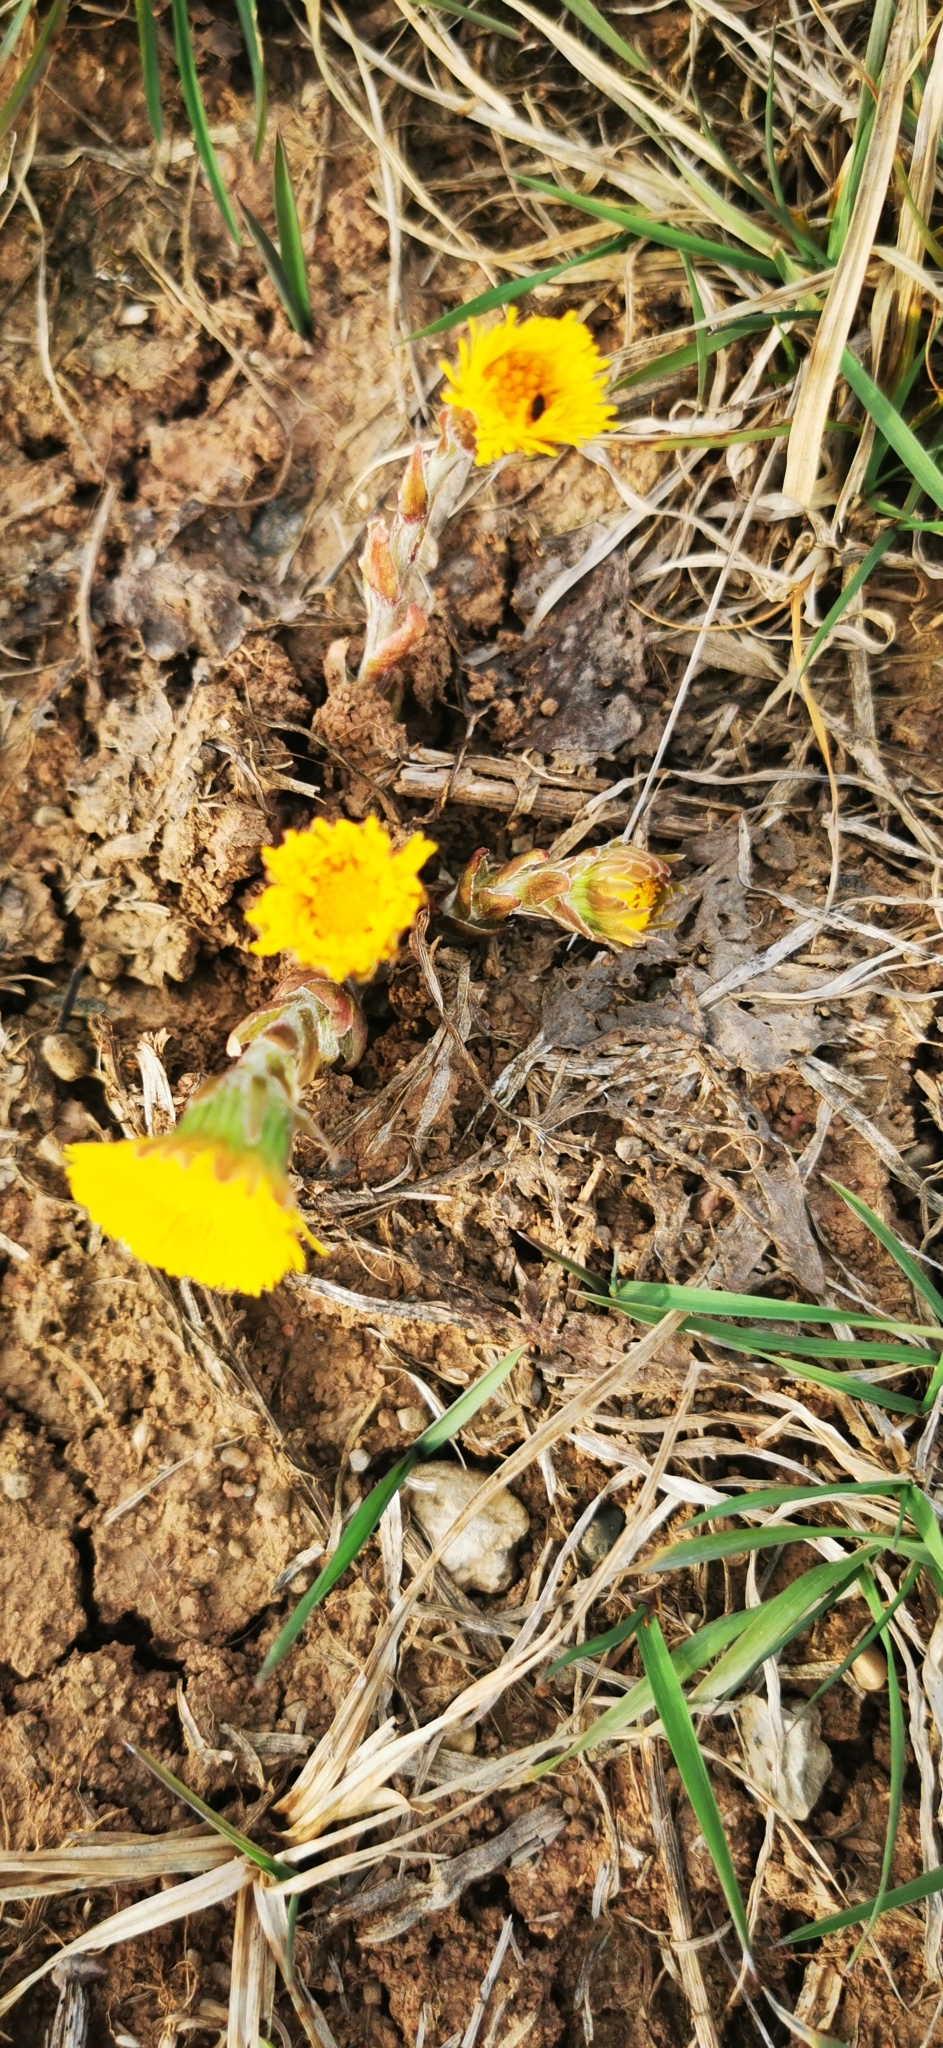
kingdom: Plantae
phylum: Tracheophyta
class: Magnoliopsida
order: Asterales
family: Asteraceae
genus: Tussilago
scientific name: Tussilago farfara
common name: Coltsfoot
